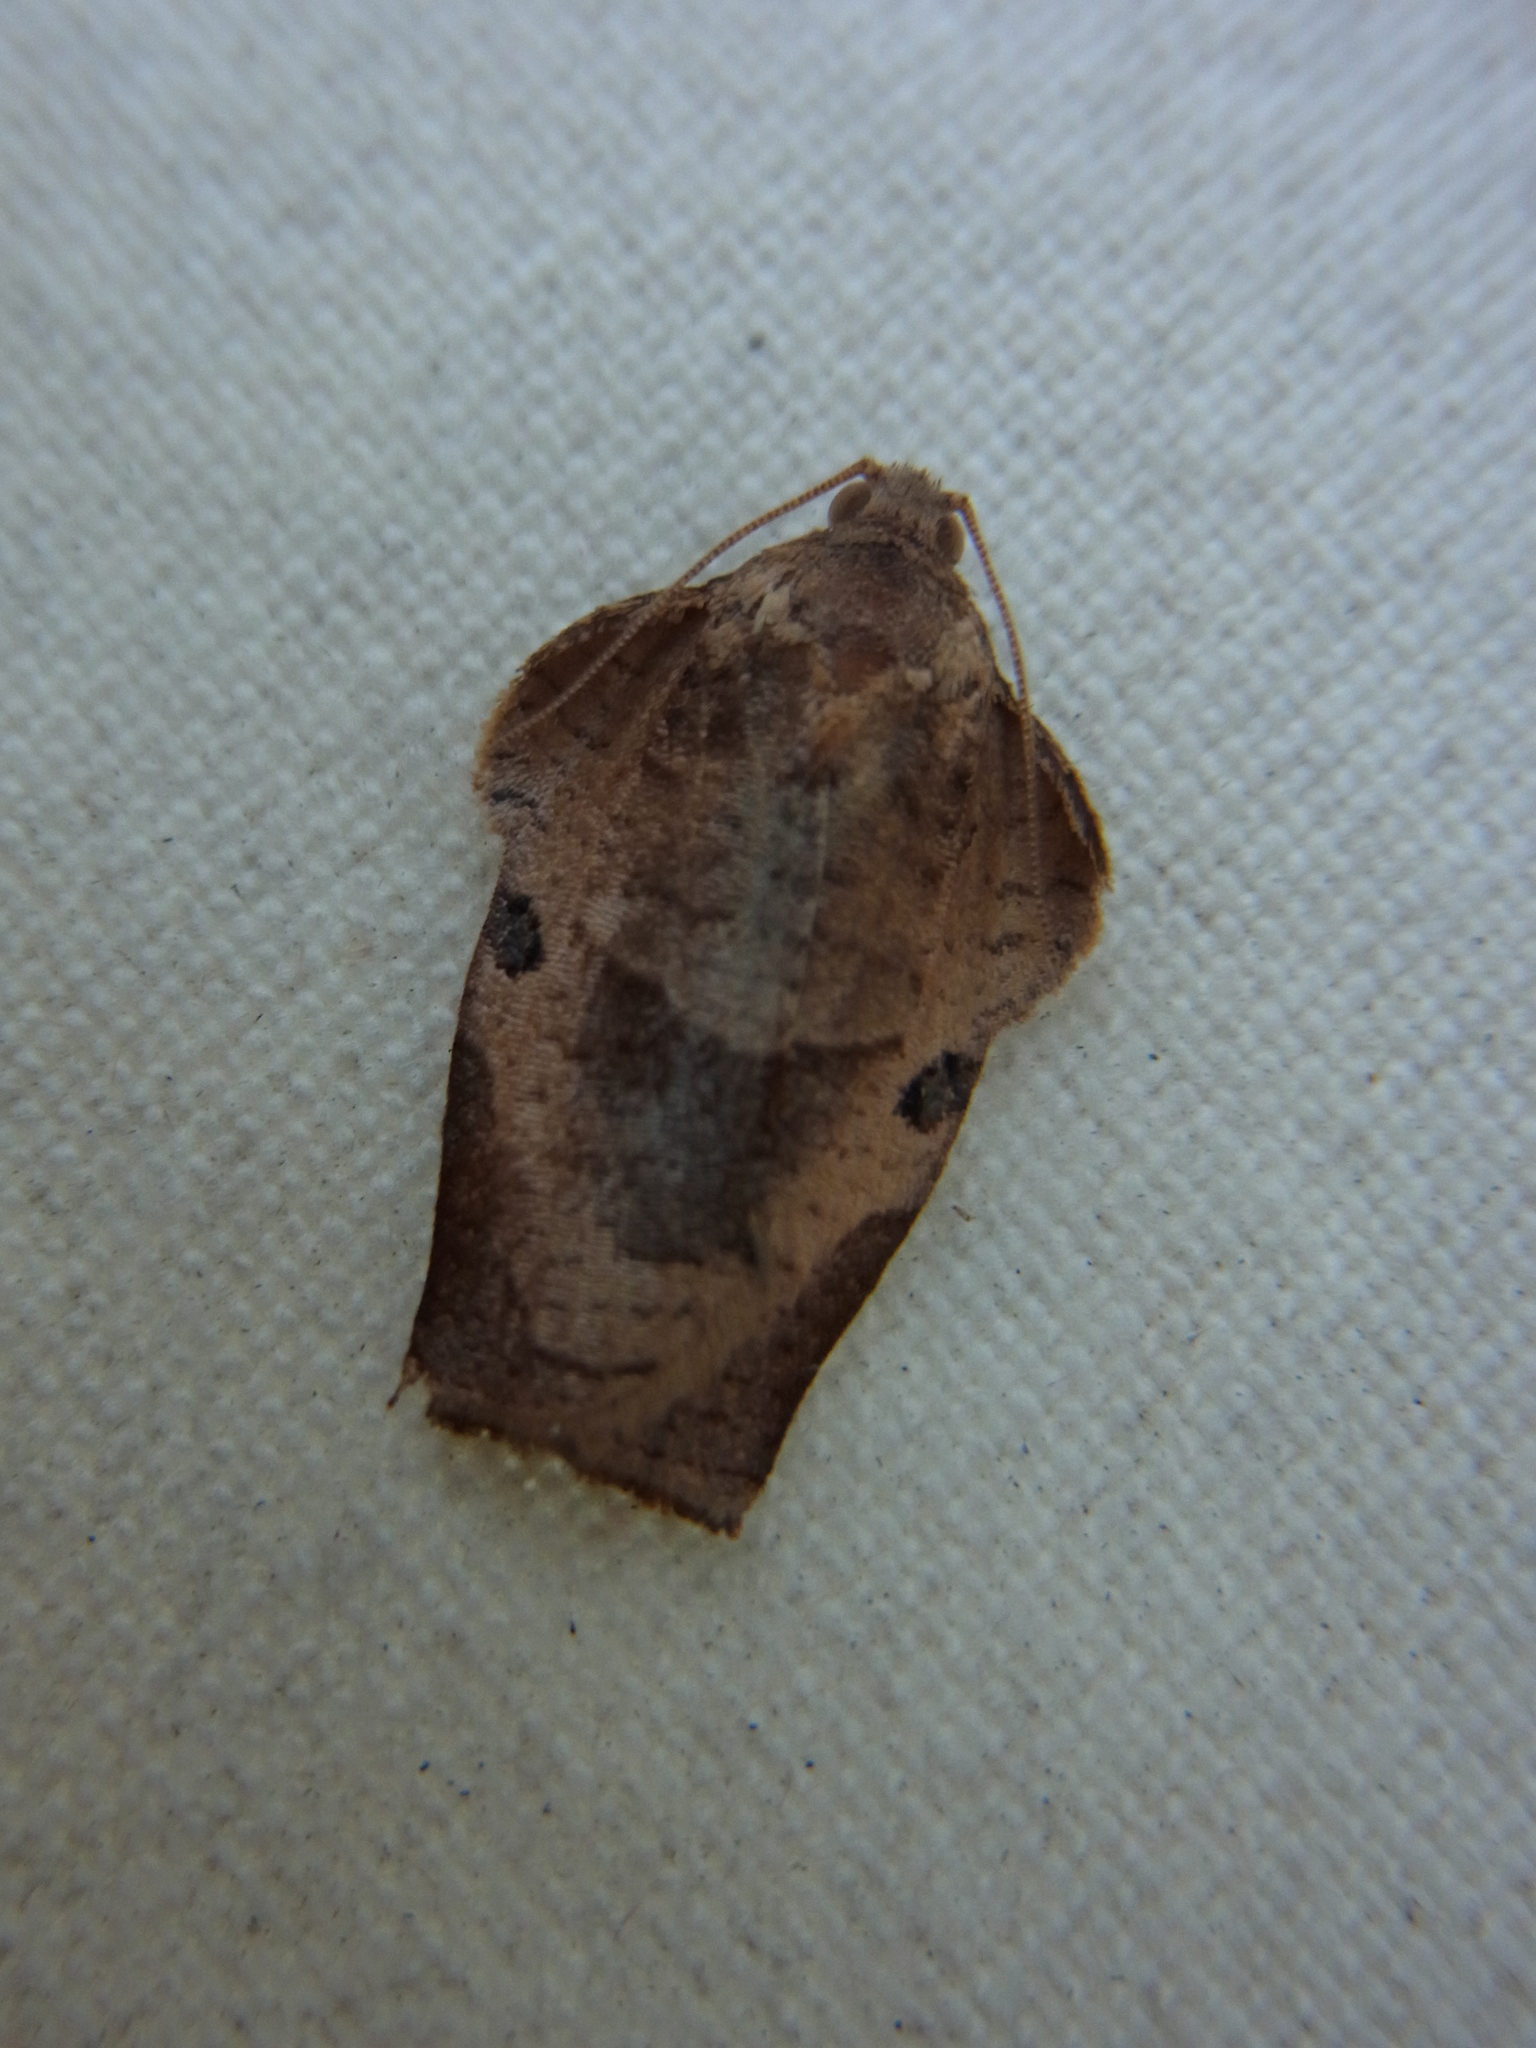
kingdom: Animalia
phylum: Arthropoda
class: Insecta
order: Lepidoptera
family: Tortricidae
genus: Homona
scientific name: Homona magnanima
